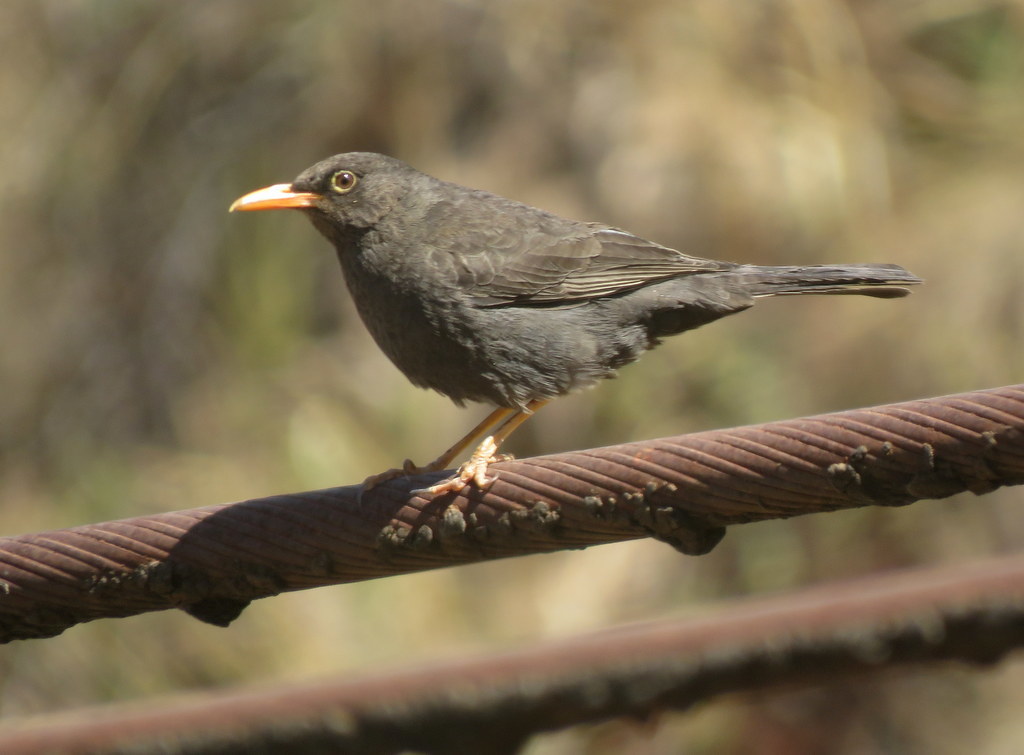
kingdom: Animalia
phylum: Chordata
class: Aves
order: Passeriformes
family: Turdidae
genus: Turdus
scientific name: Turdus chiguanco
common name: Chiguanco thrush
